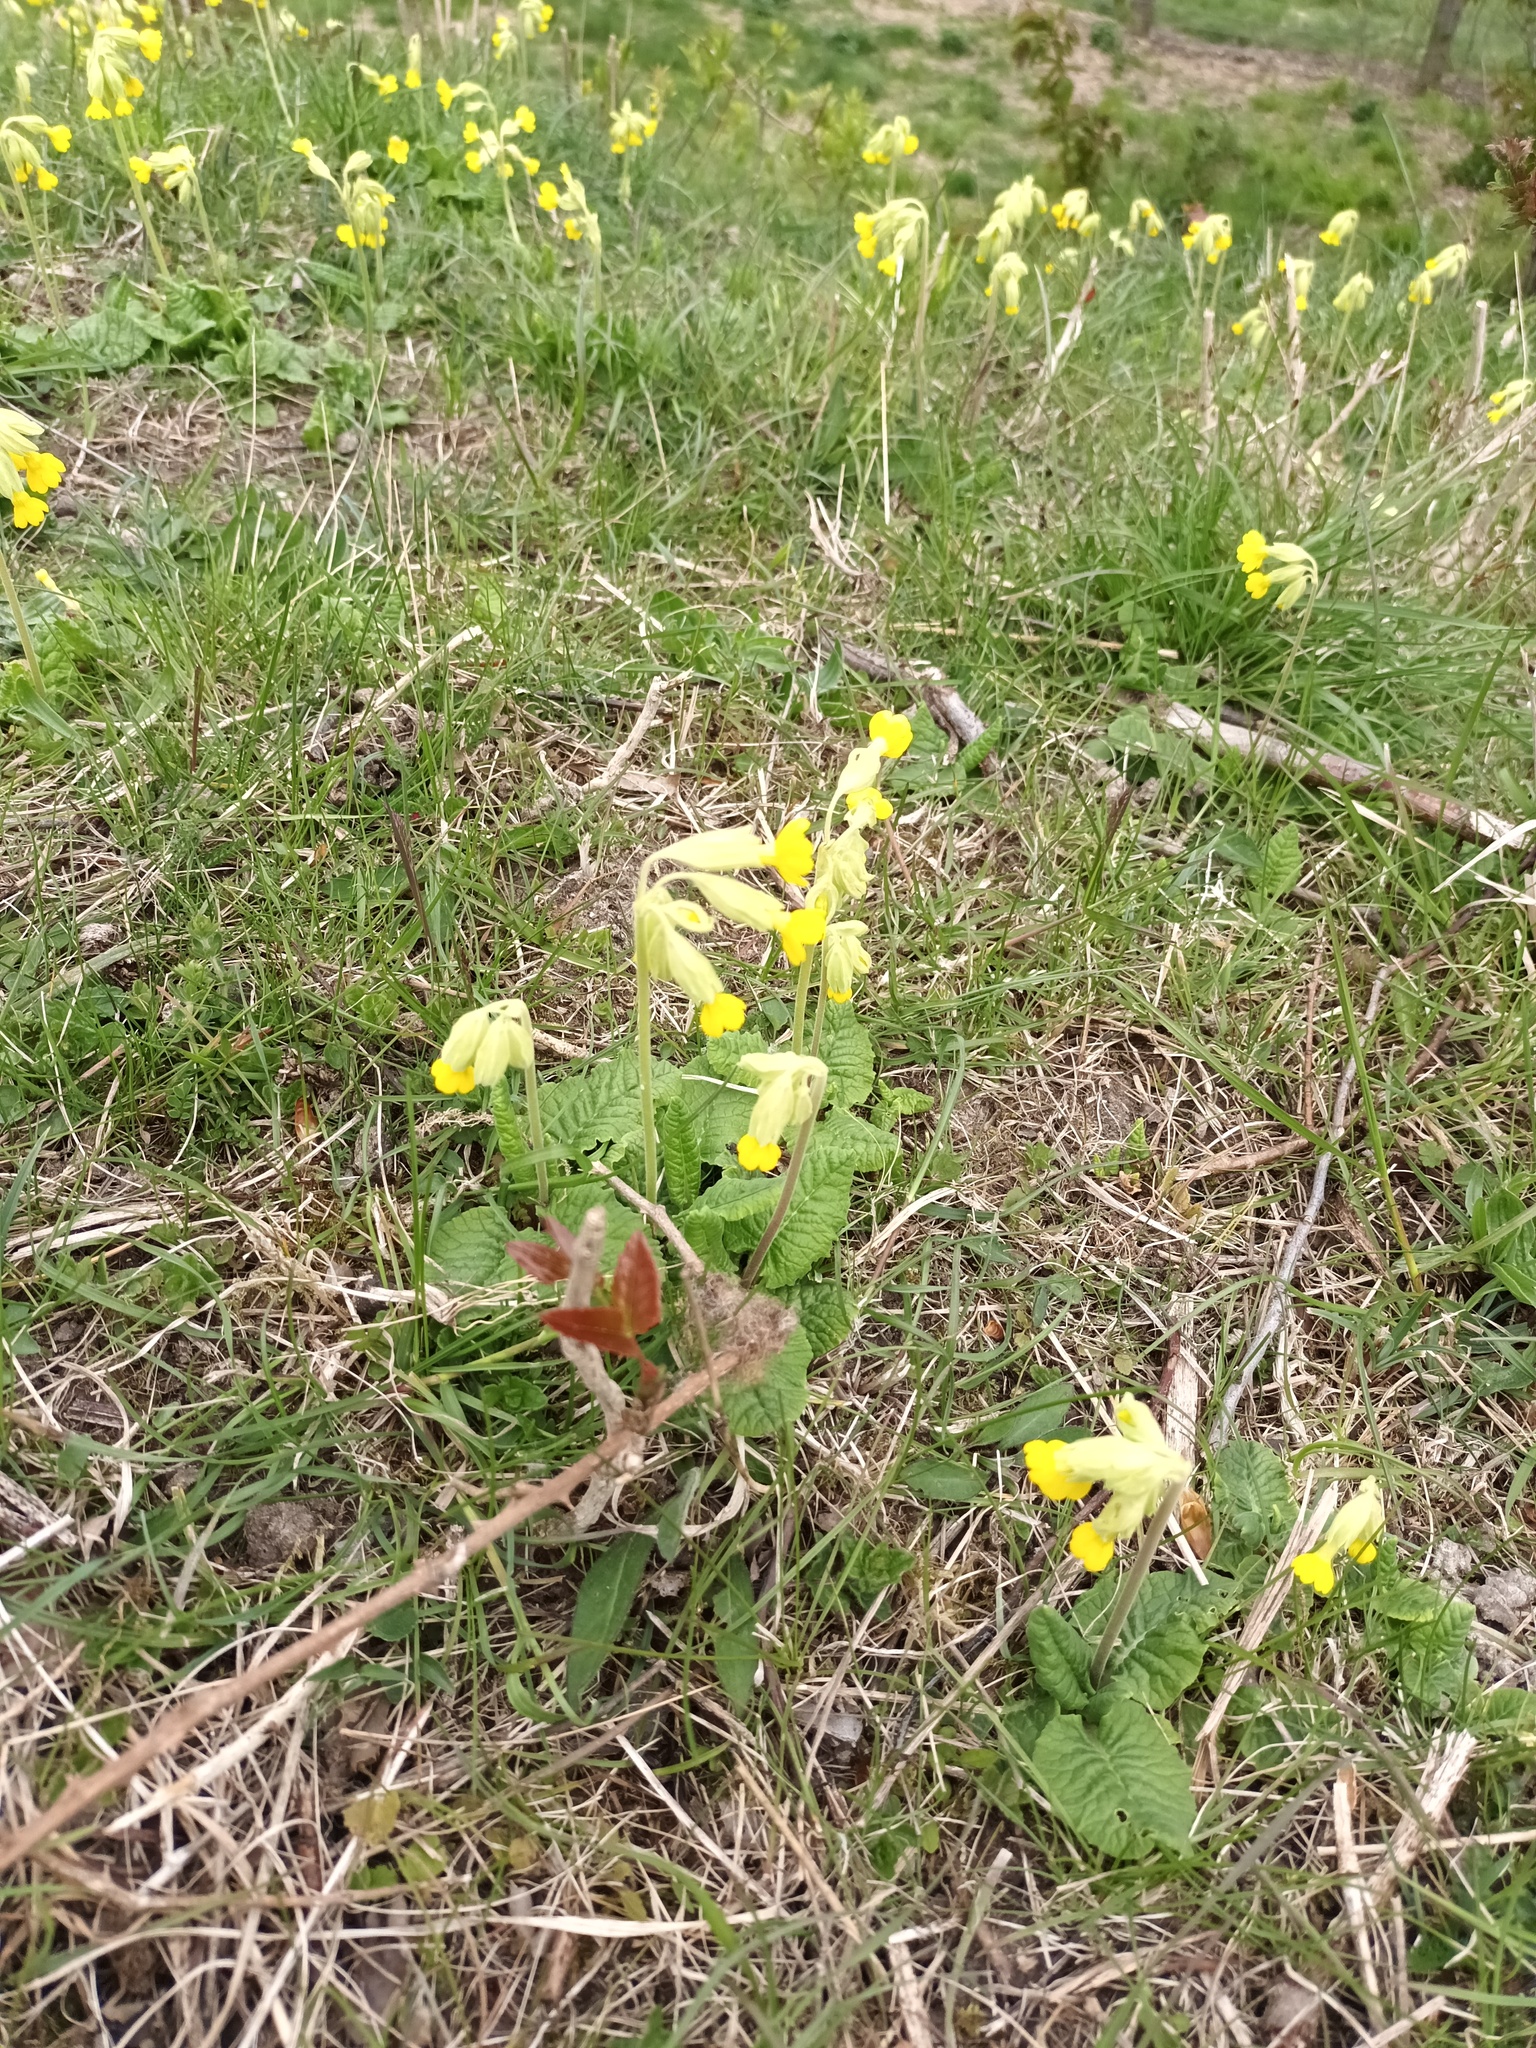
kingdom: Plantae
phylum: Tracheophyta
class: Magnoliopsida
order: Ericales
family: Primulaceae
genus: Primula
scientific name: Primula veris
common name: Cowslip
